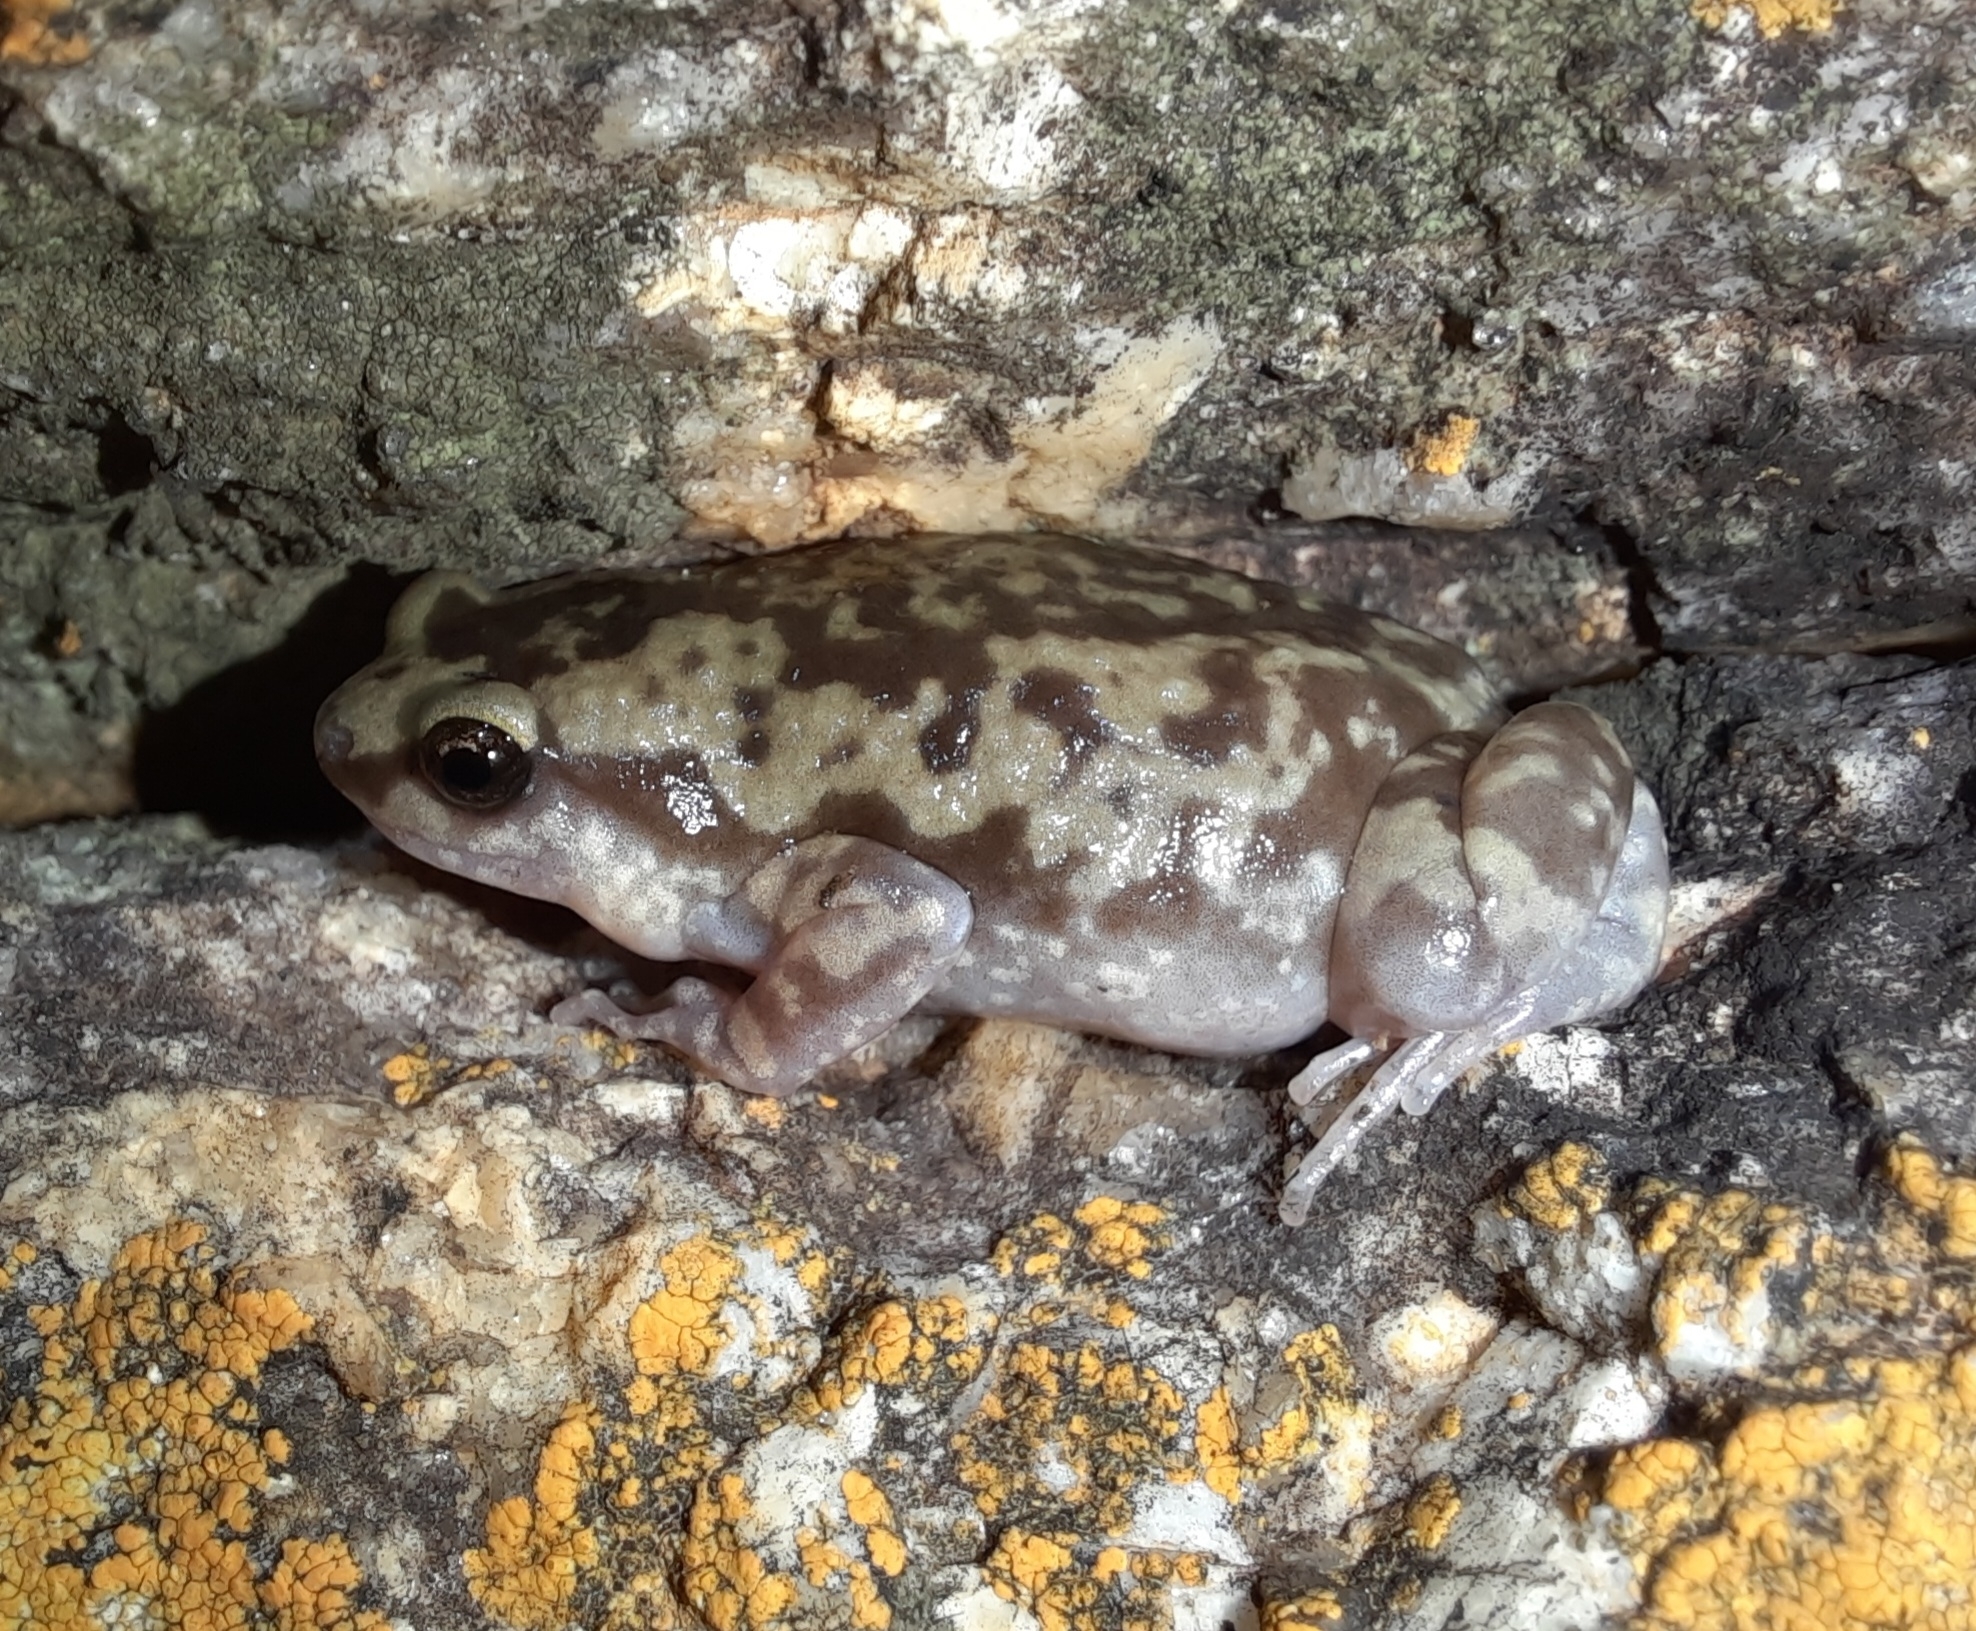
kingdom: Animalia
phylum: Chordata
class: Amphibia
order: Anura
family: Microhylidae
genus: Uperodon
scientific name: Uperodon variegatus
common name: Eluru dot frog
